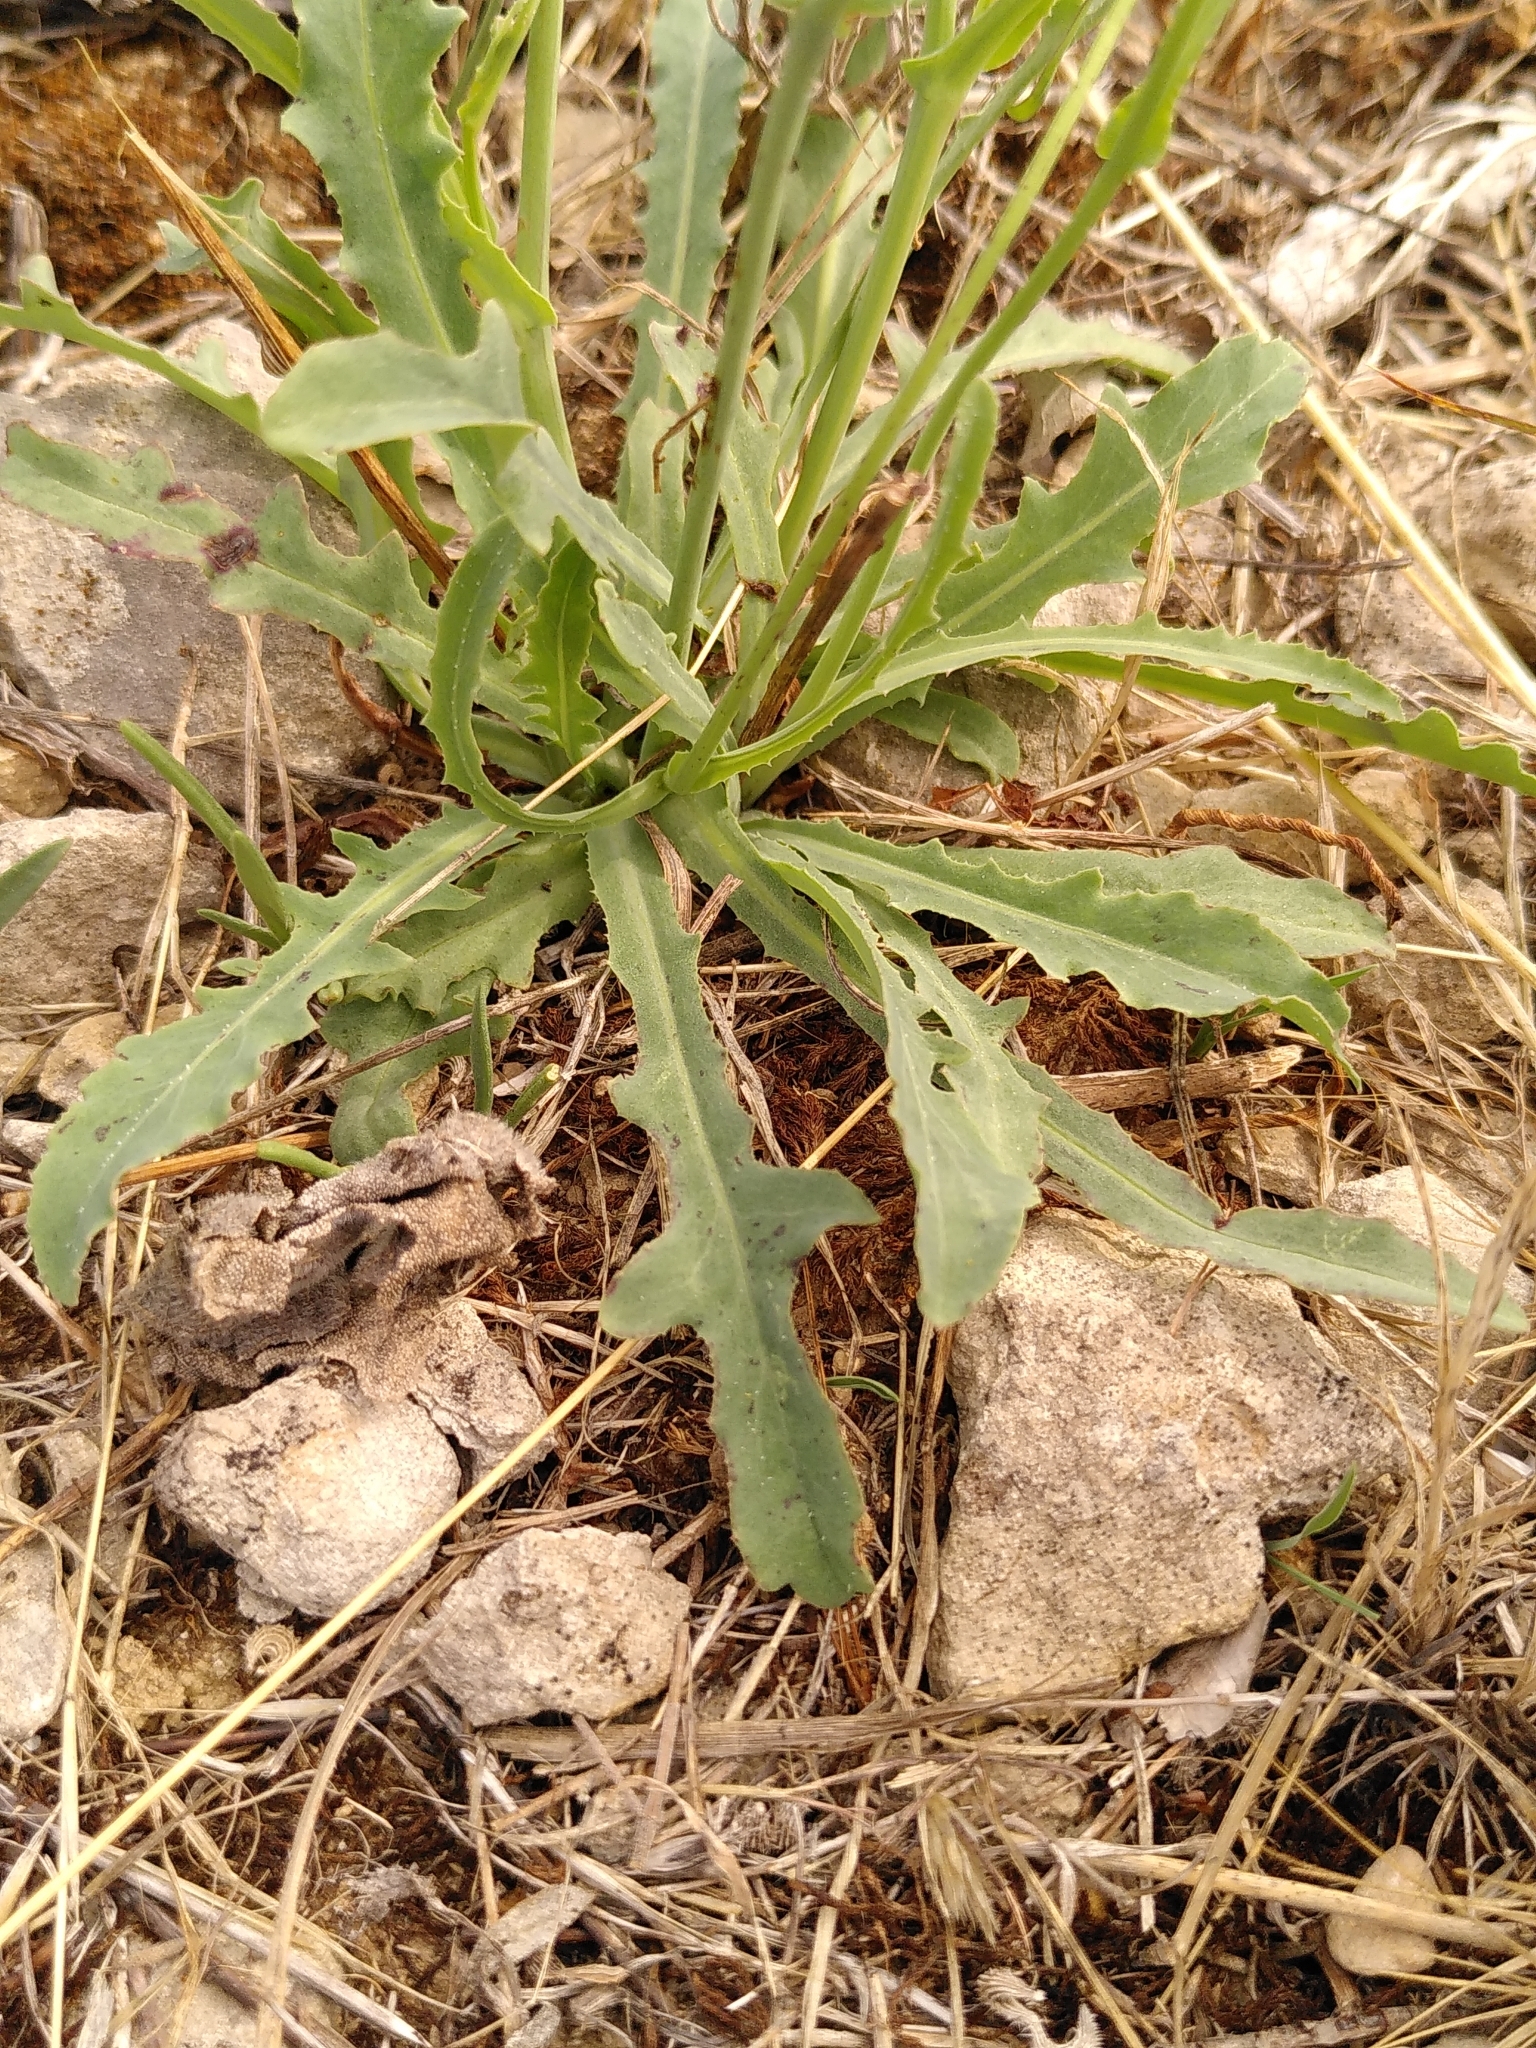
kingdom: Plantae
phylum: Tracheophyta
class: Magnoliopsida
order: Asterales
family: Asteraceae
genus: Reichardia
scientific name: Reichardia picroides
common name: Common brighteyes
